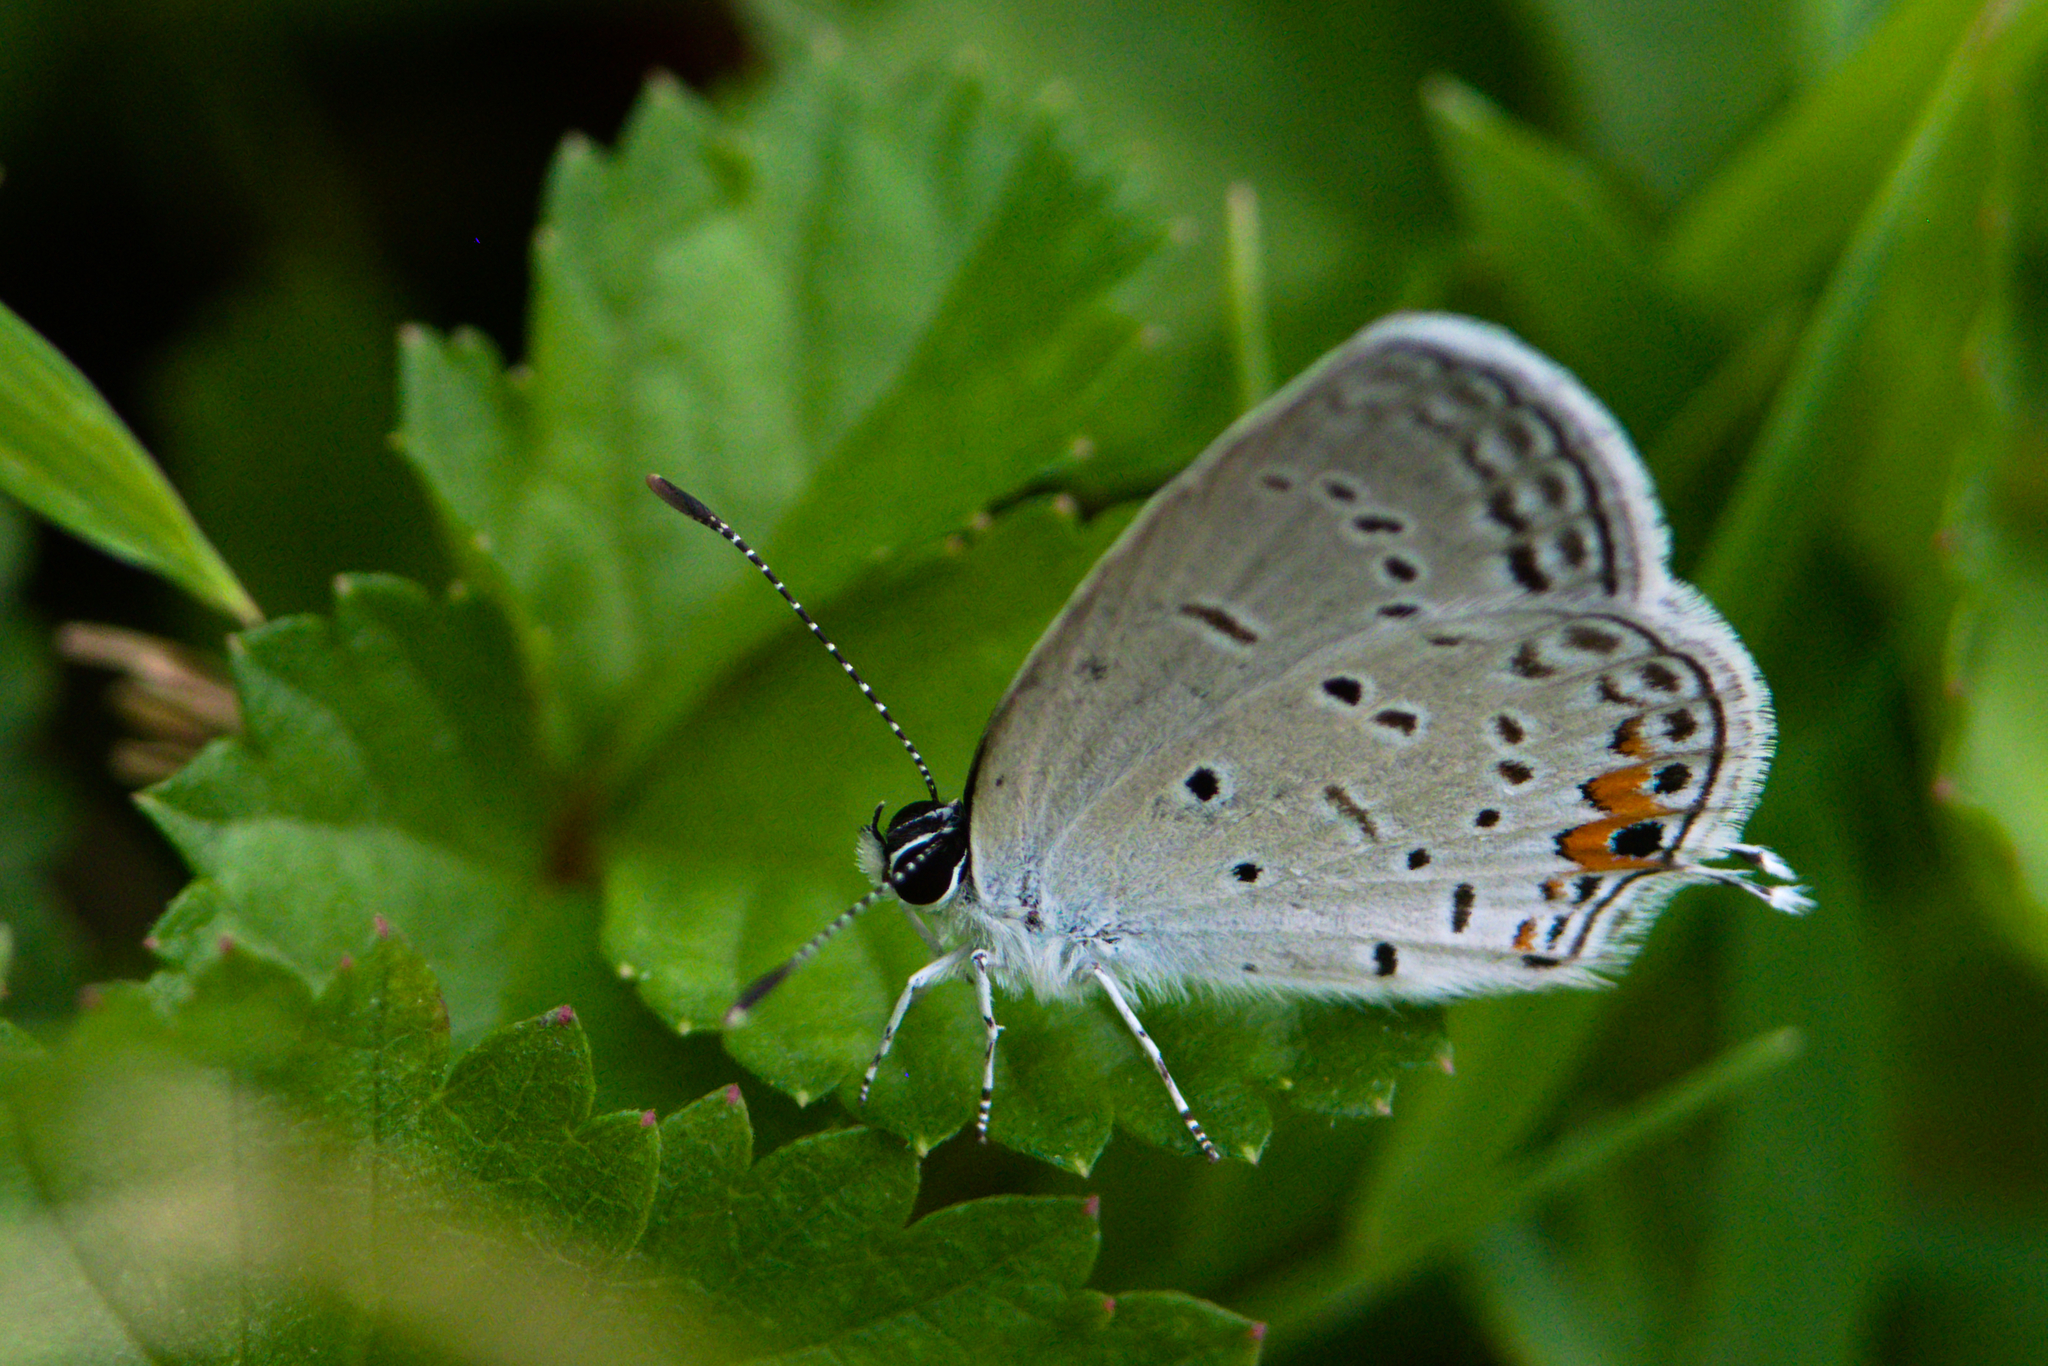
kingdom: Animalia
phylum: Arthropoda
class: Insecta
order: Lepidoptera
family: Lycaenidae
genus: Elkalyce
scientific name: Elkalyce comyntas
